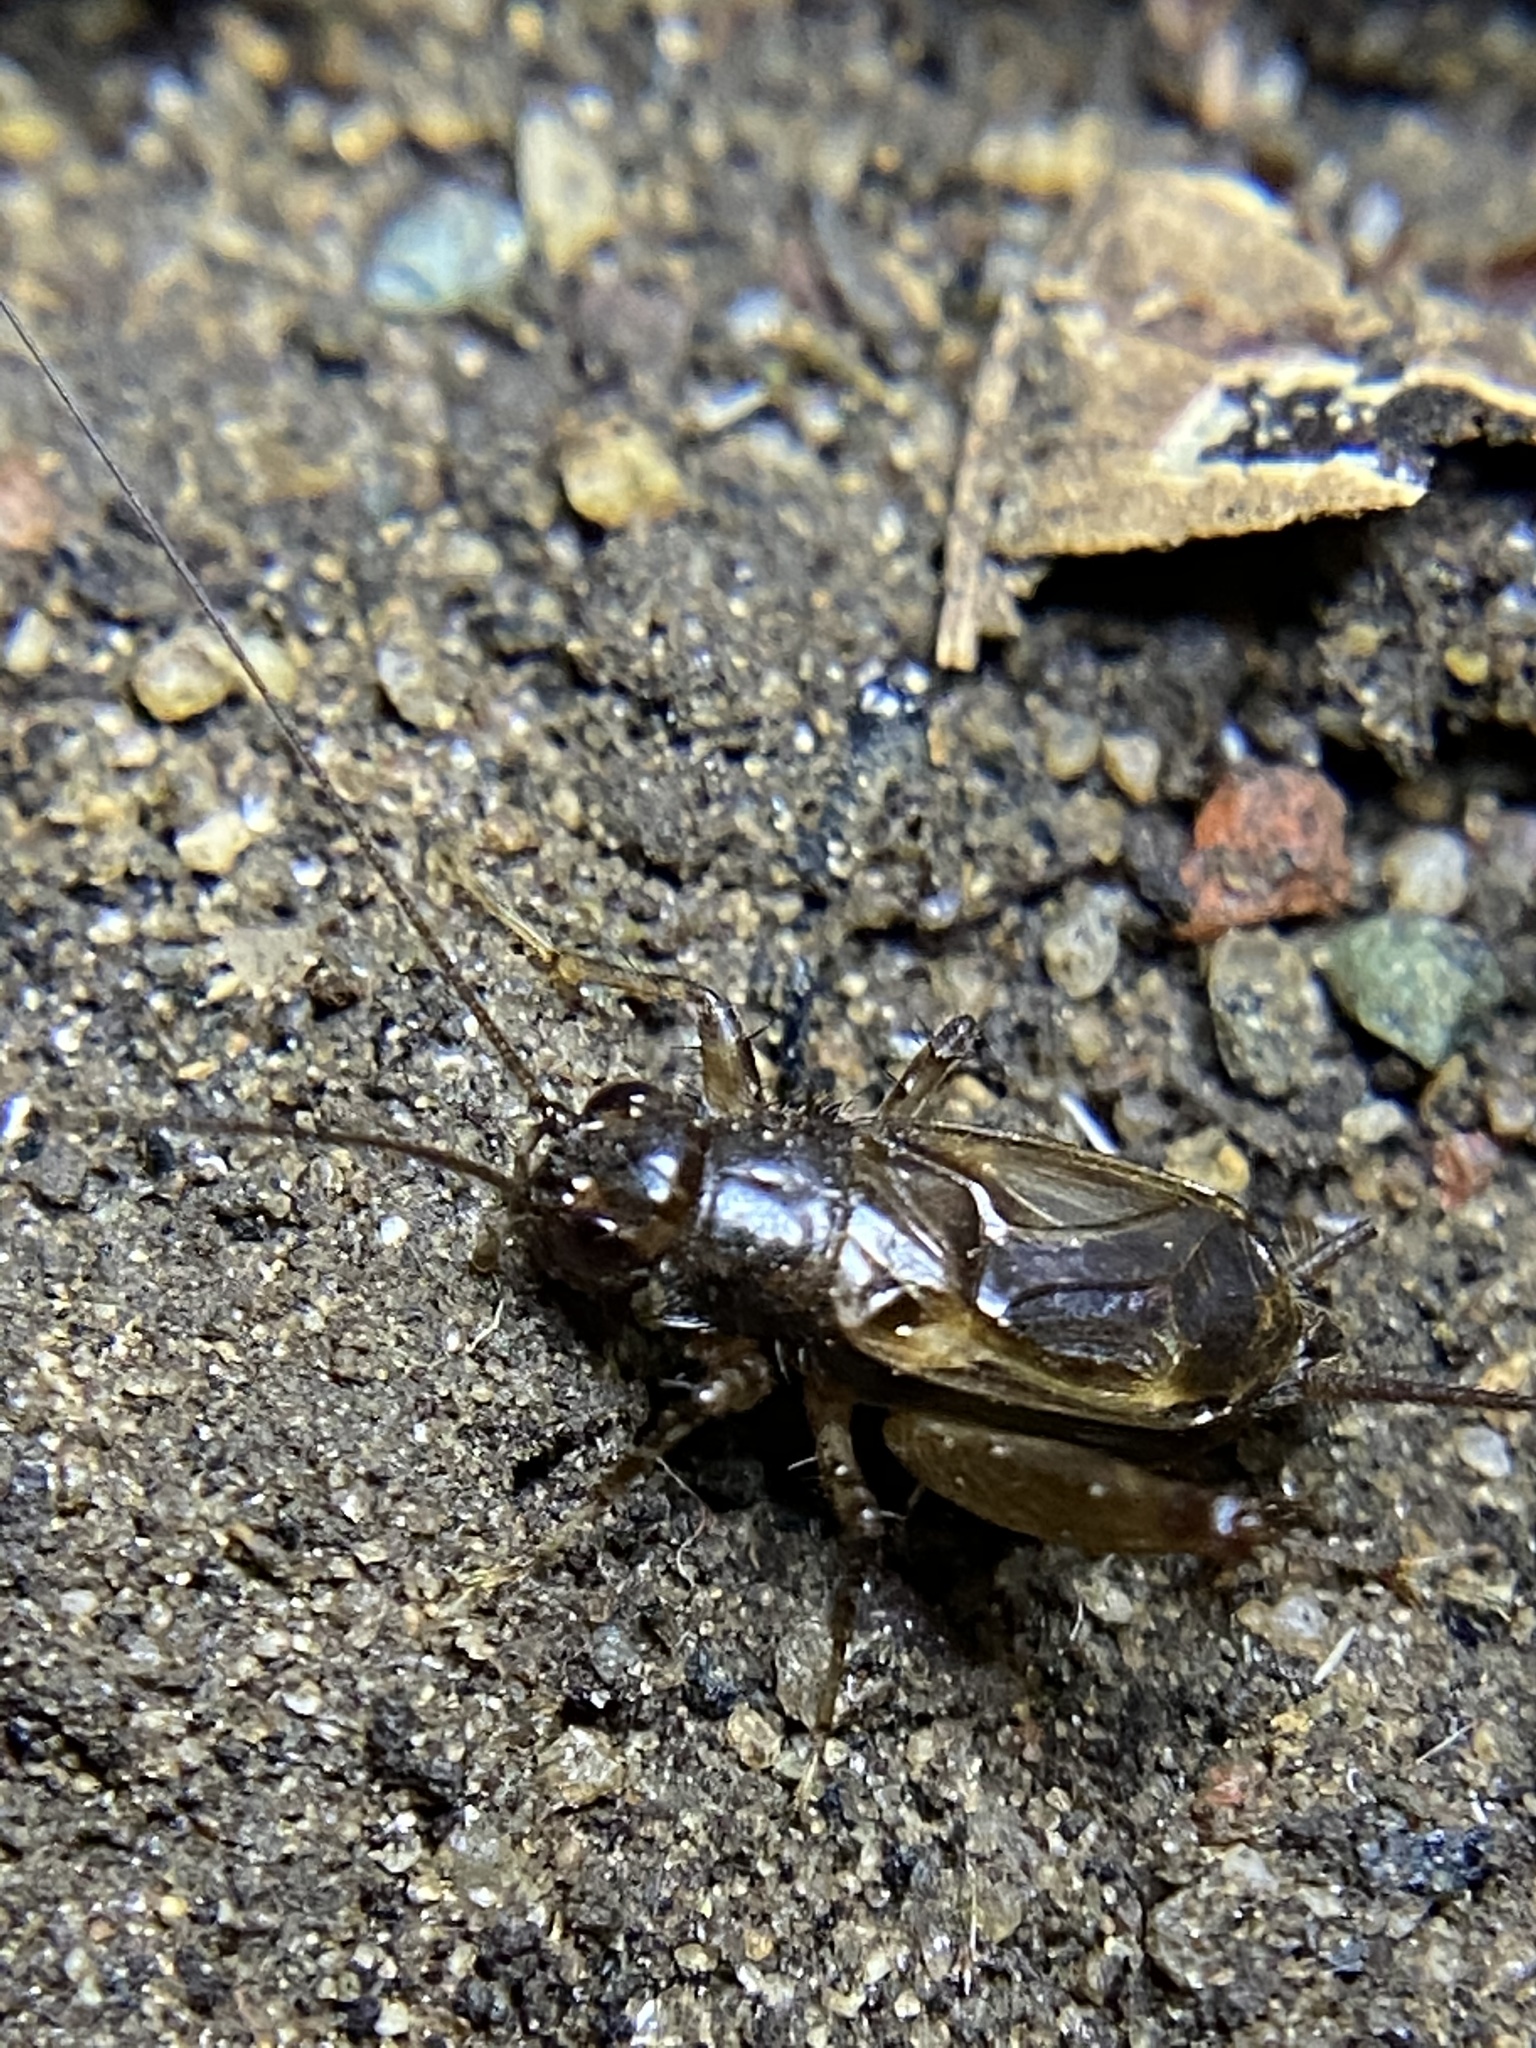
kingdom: Animalia
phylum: Arthropoda
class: Insecta
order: Orthoptera
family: Trigonidiidae
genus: Eunemobius
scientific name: Eunemobius carolinus
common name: Carolina ground cricket
